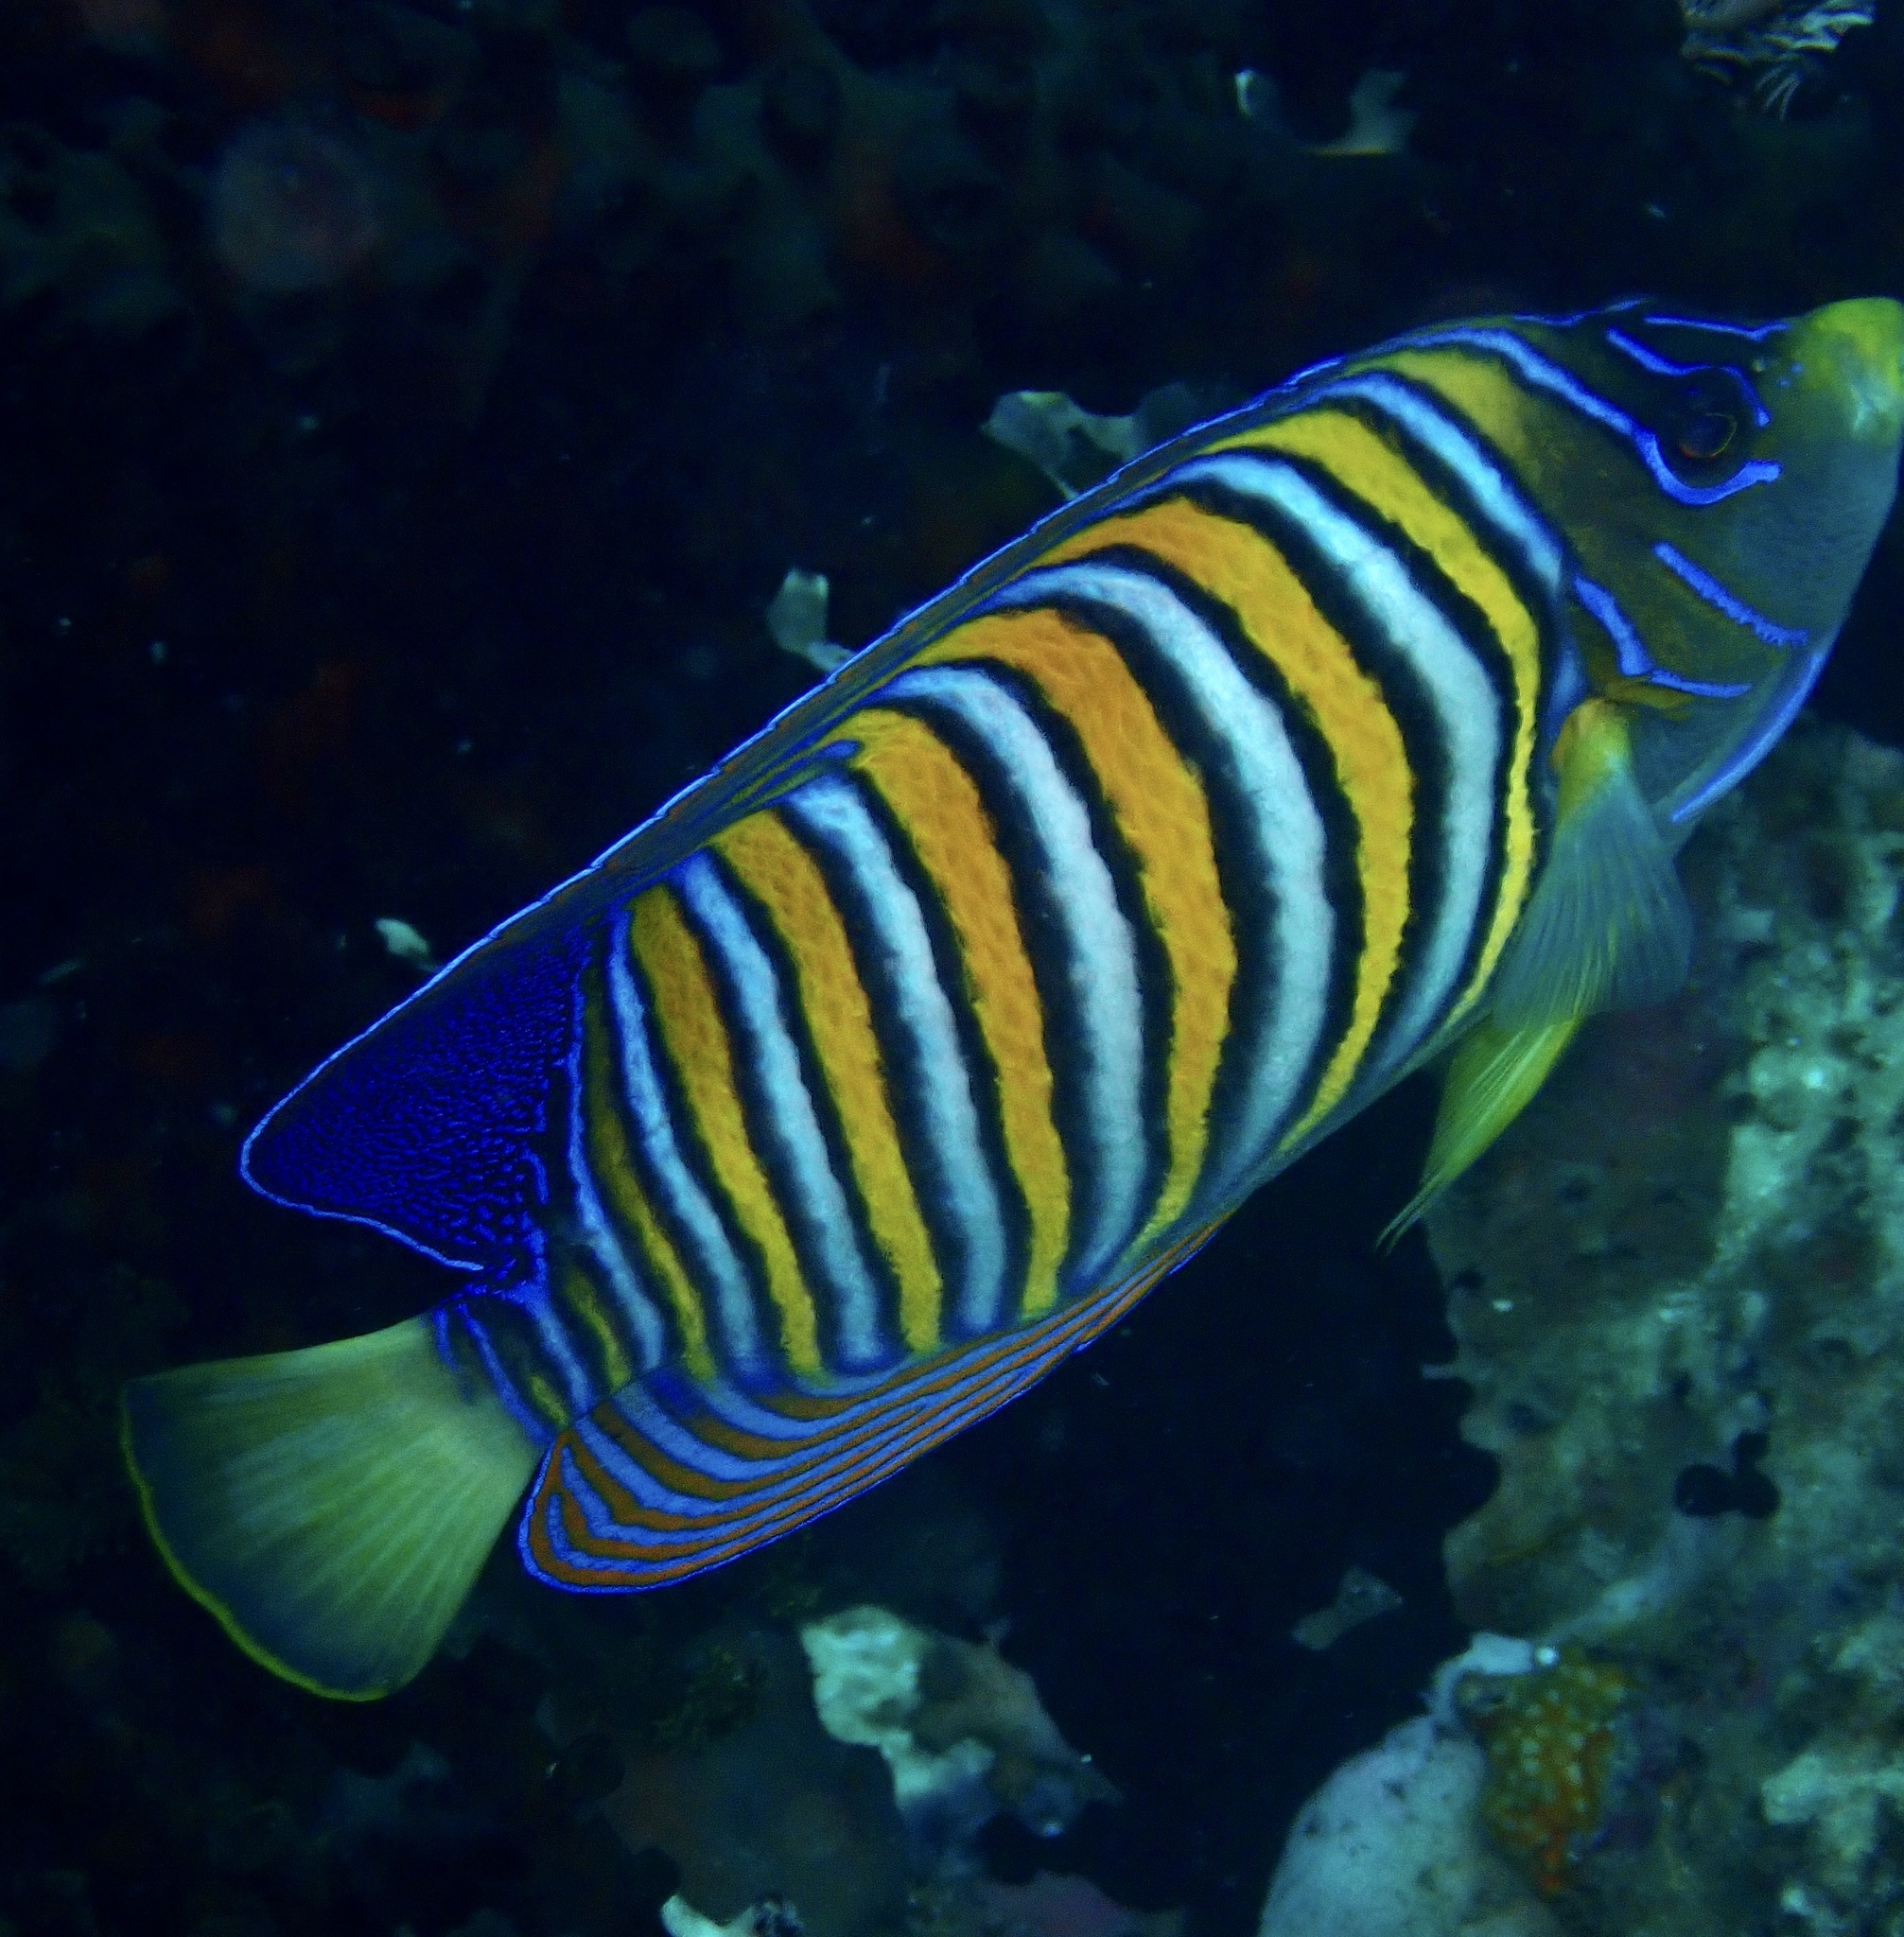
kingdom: Animalia
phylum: Chordata
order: Perciformes
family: Pomacanthidae
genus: Pygoplites
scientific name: Pygoplites diacanthus
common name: Regal angelfish
